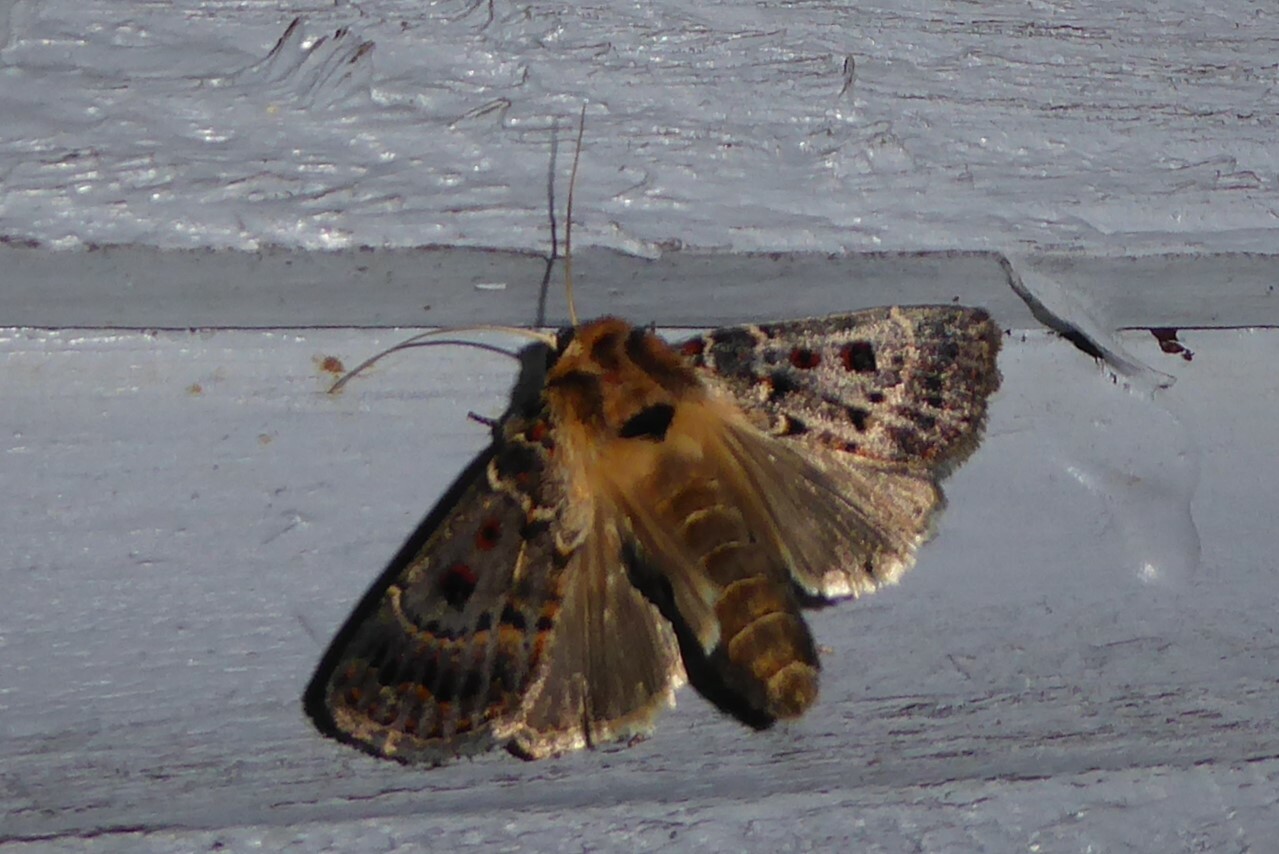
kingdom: Animalia
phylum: Arthropoda
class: Insecta
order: Lepidoptera
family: Noctuidae
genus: Proteuxoa
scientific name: Proteuxoa sanguinipuncta
